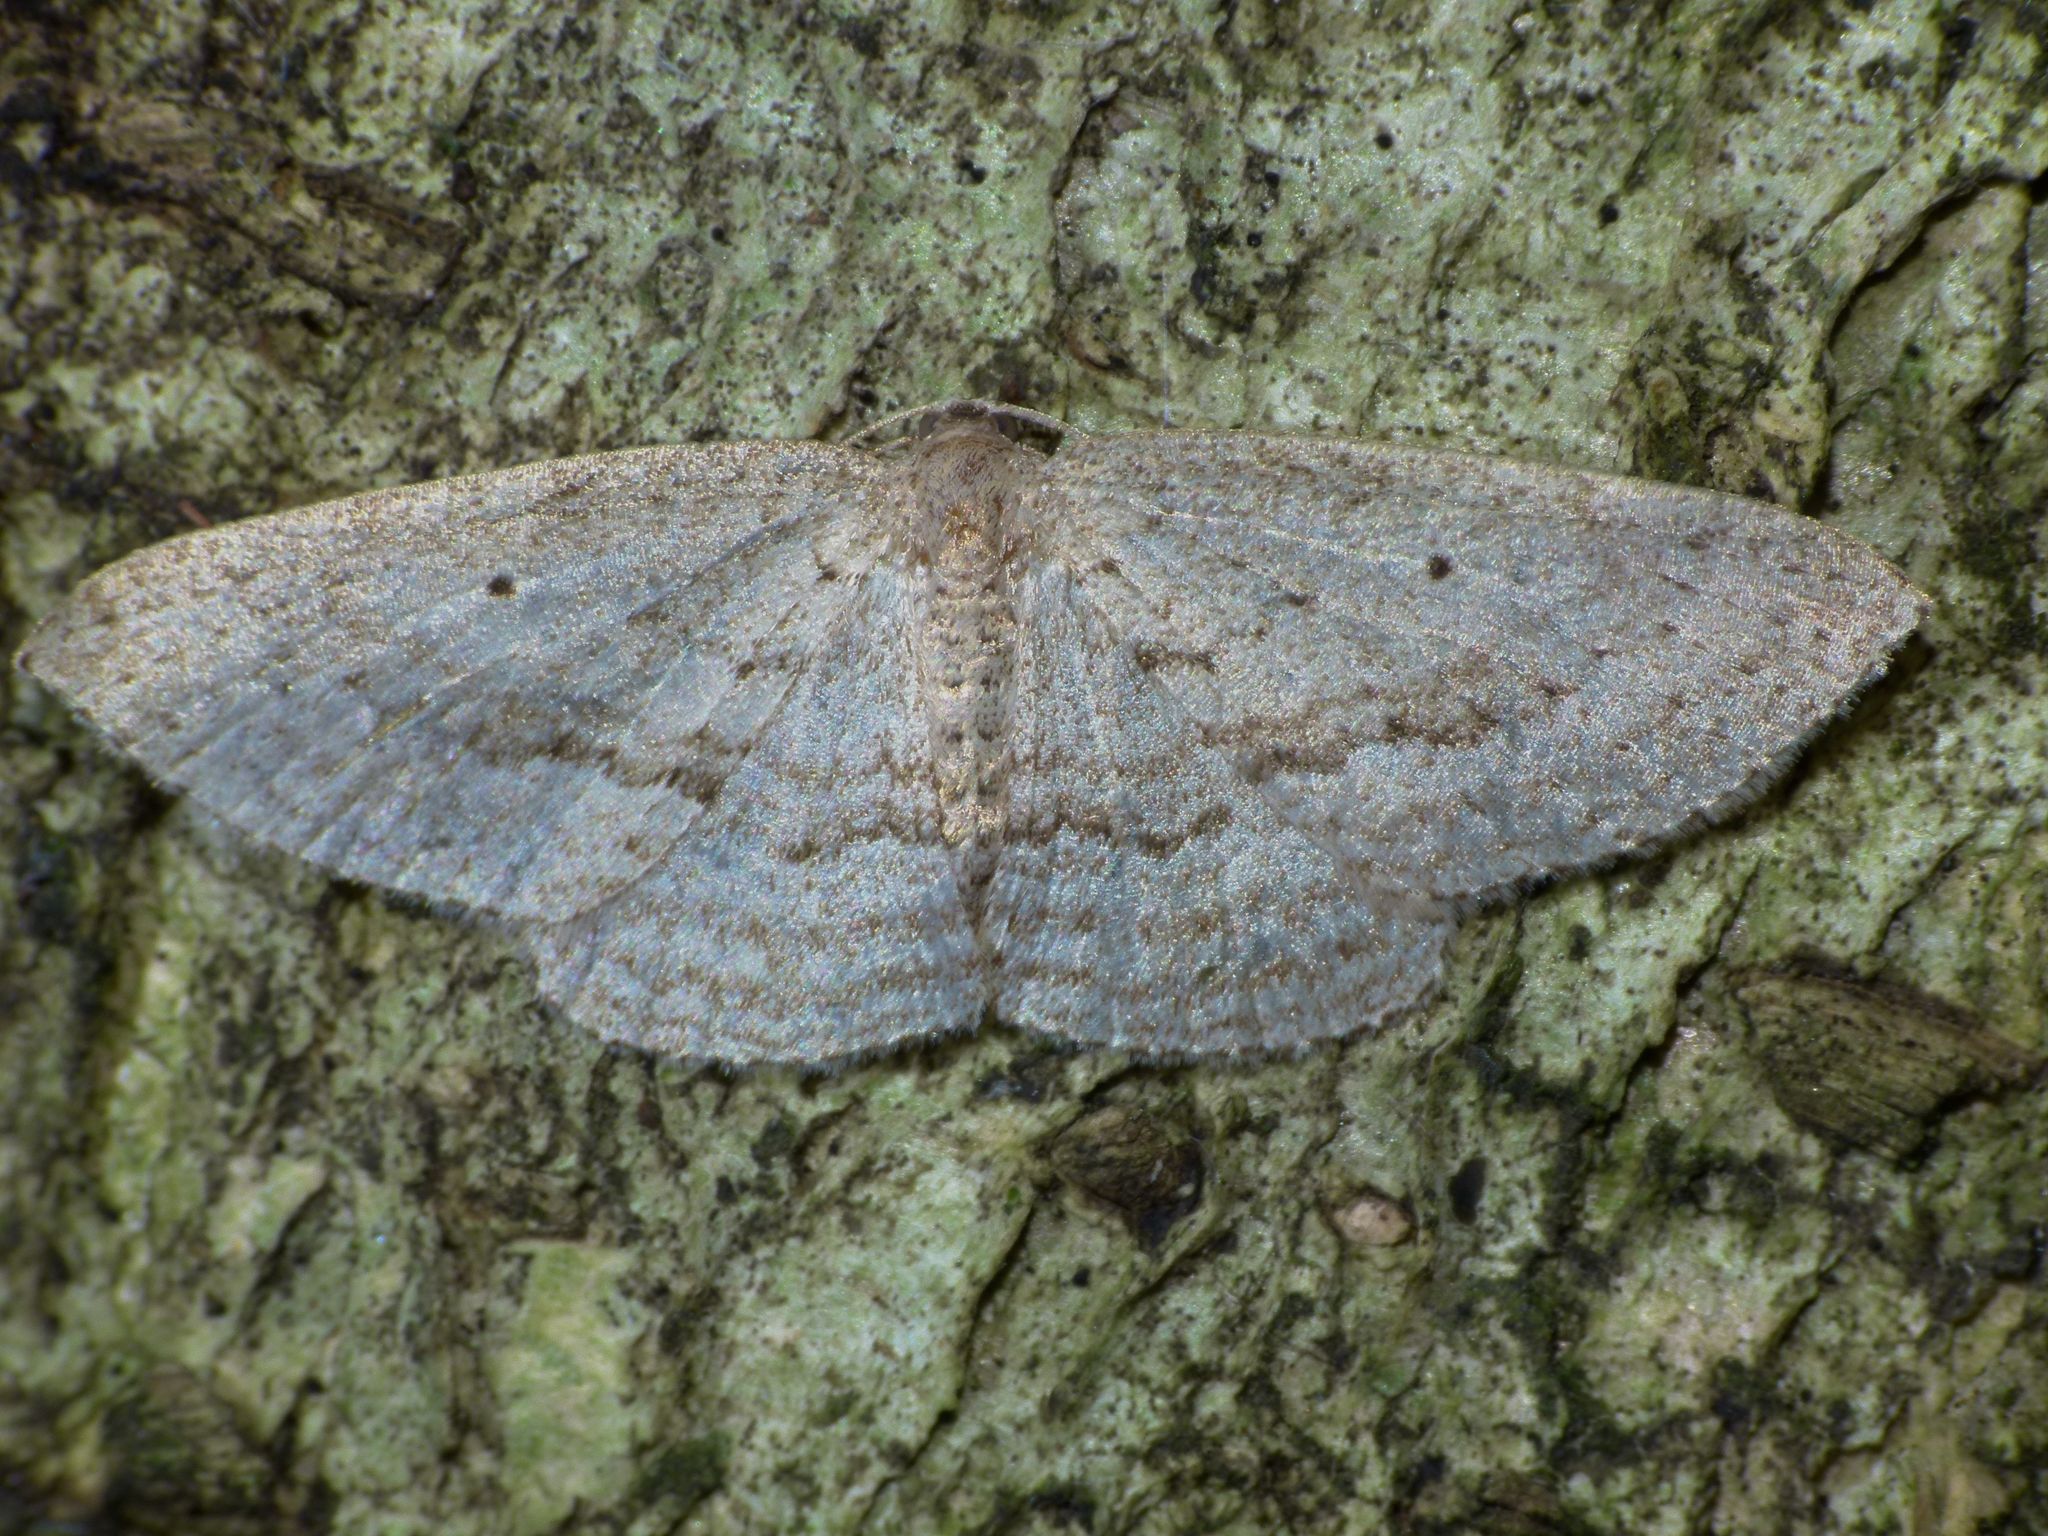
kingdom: Animalia
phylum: Arthropoda
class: Insecta
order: Lepidoptera
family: Geometridae
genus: Poecilasthena
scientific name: Poecilasthena schistaria
